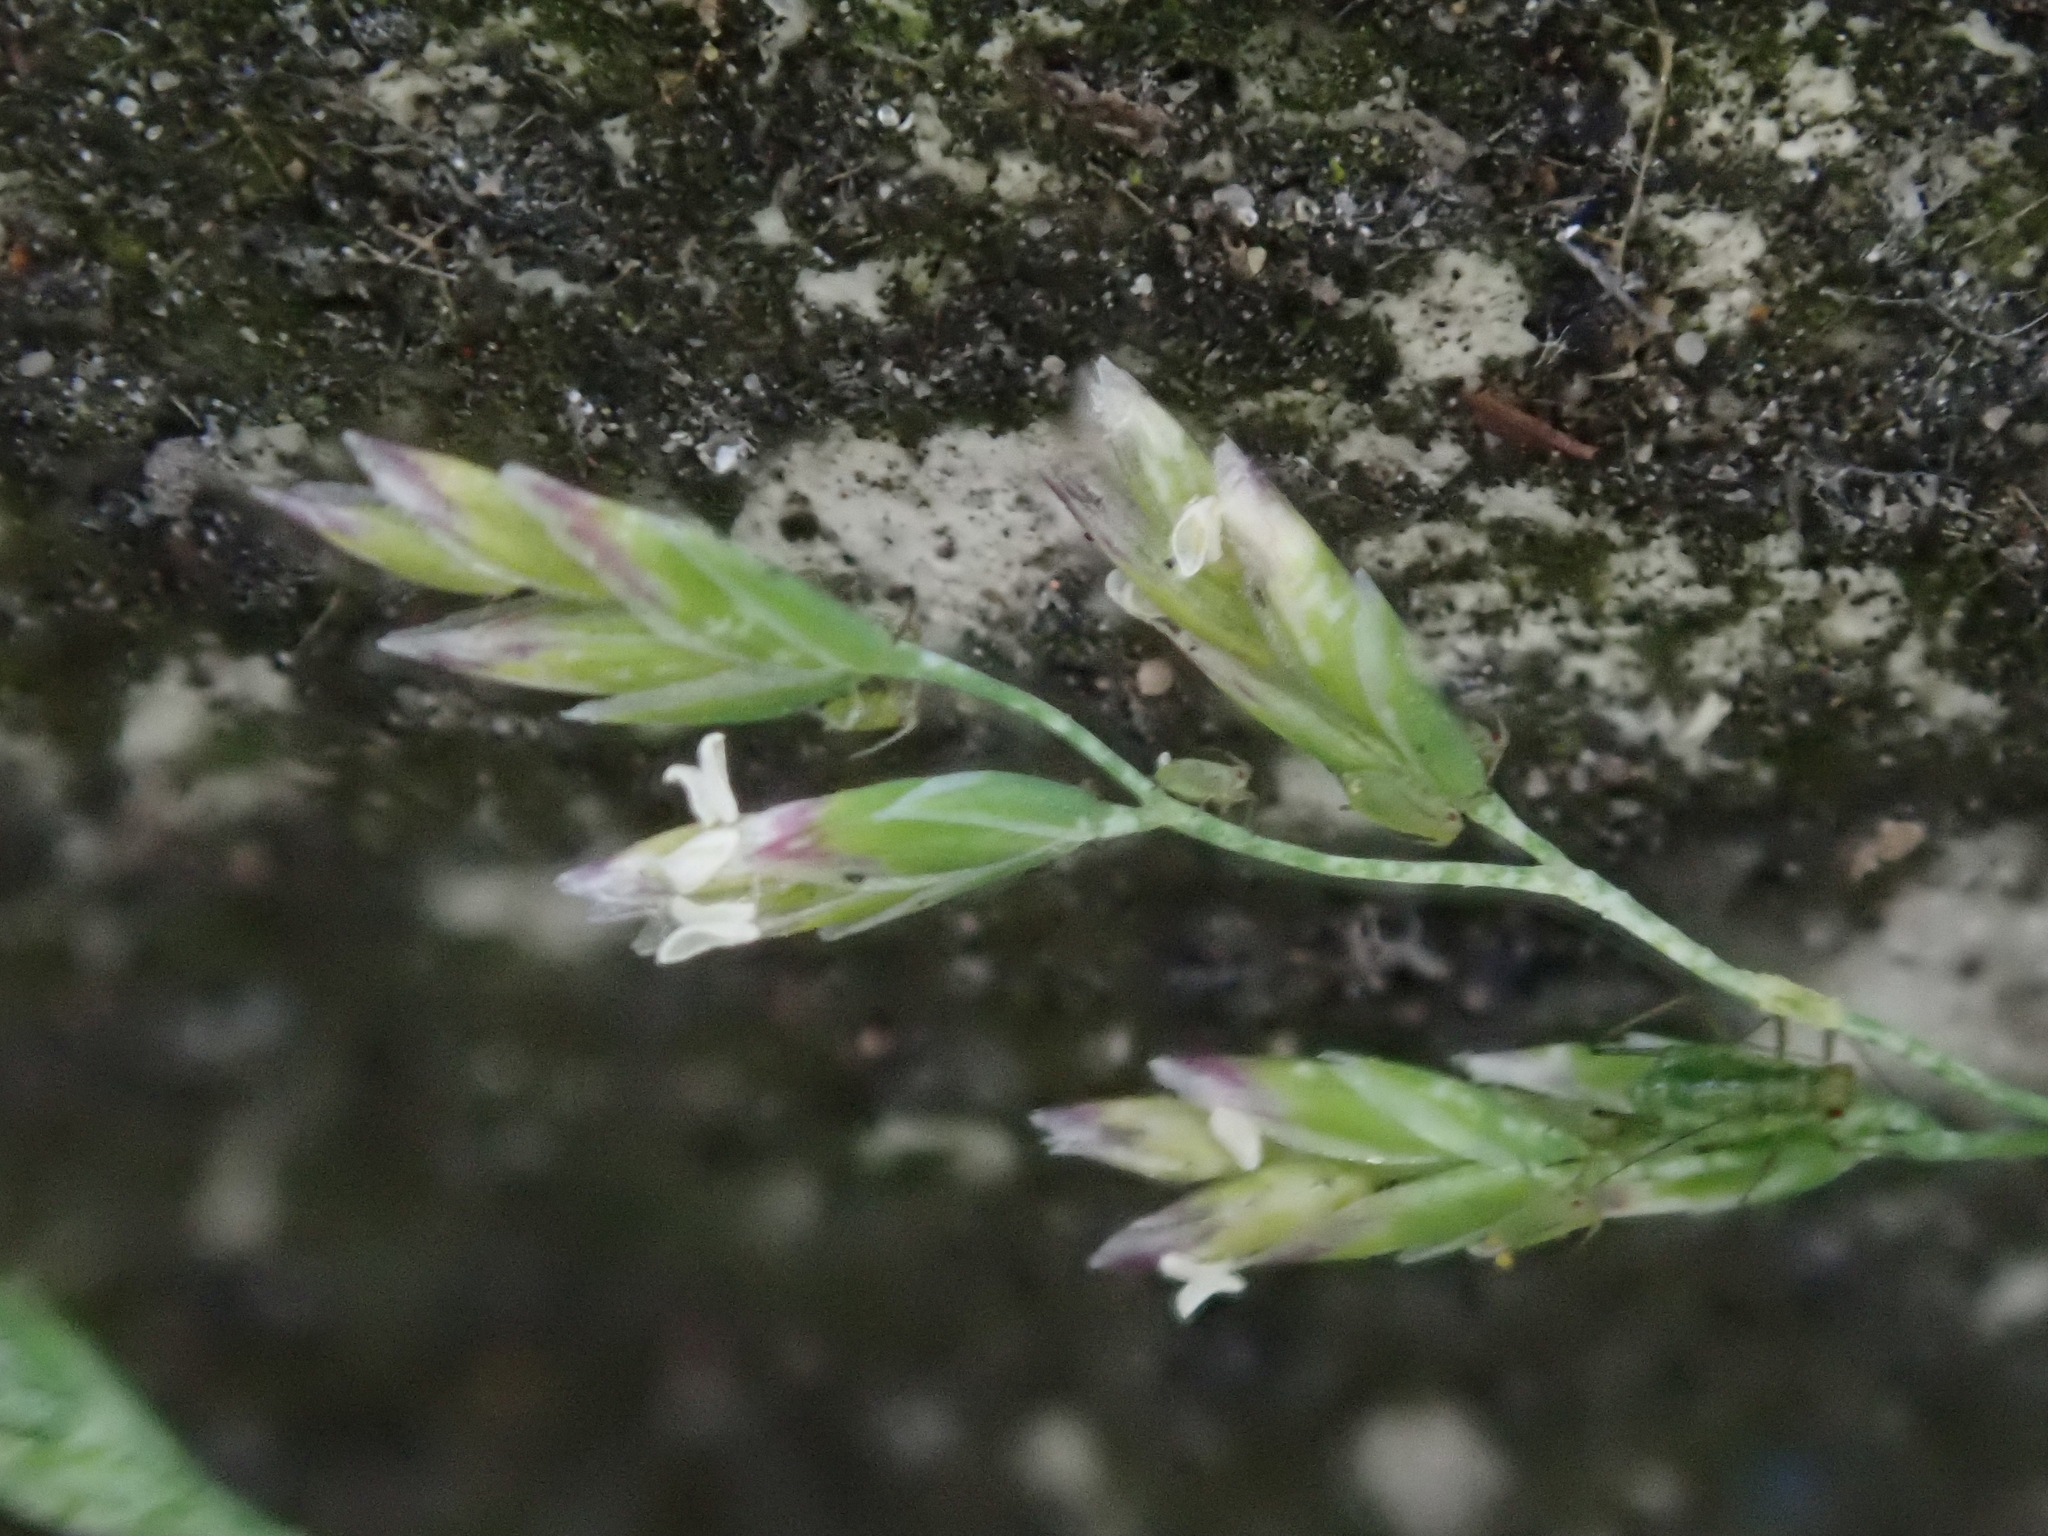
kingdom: Plantae
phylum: Tracheophyta
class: Liliopsida
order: Poales
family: Poaceae
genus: Poa
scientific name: Poa annua
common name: Annual bluegrass
